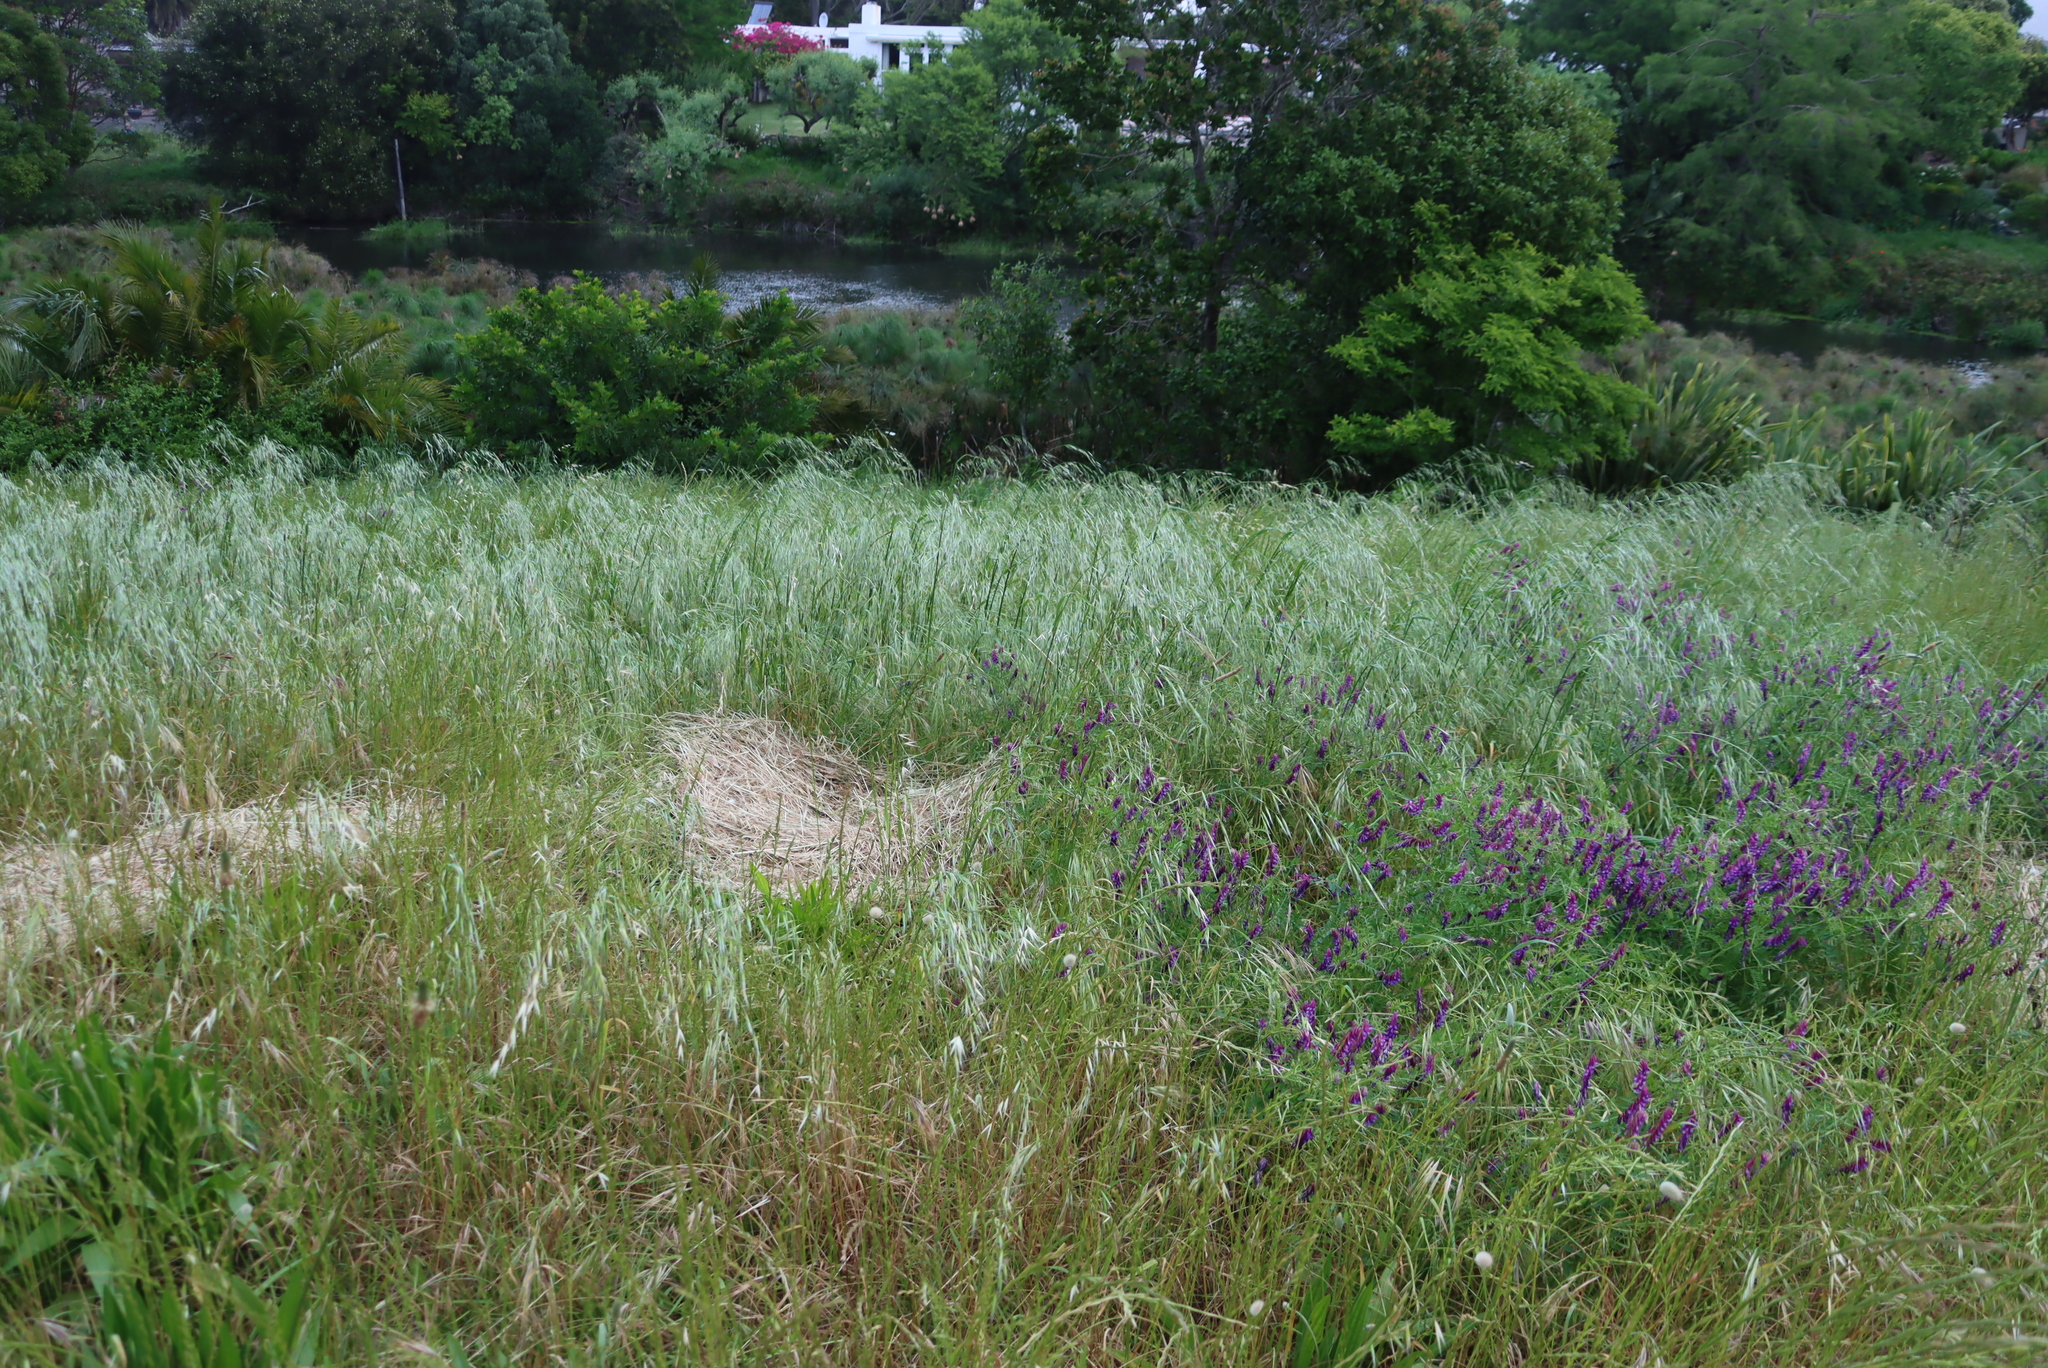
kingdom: Plantae
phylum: Tracheophyta
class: Magnoliopsida
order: Boraginales
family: Boraginaceae
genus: Echium
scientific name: Echium plantagineum
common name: Purple viper's-bugloss
